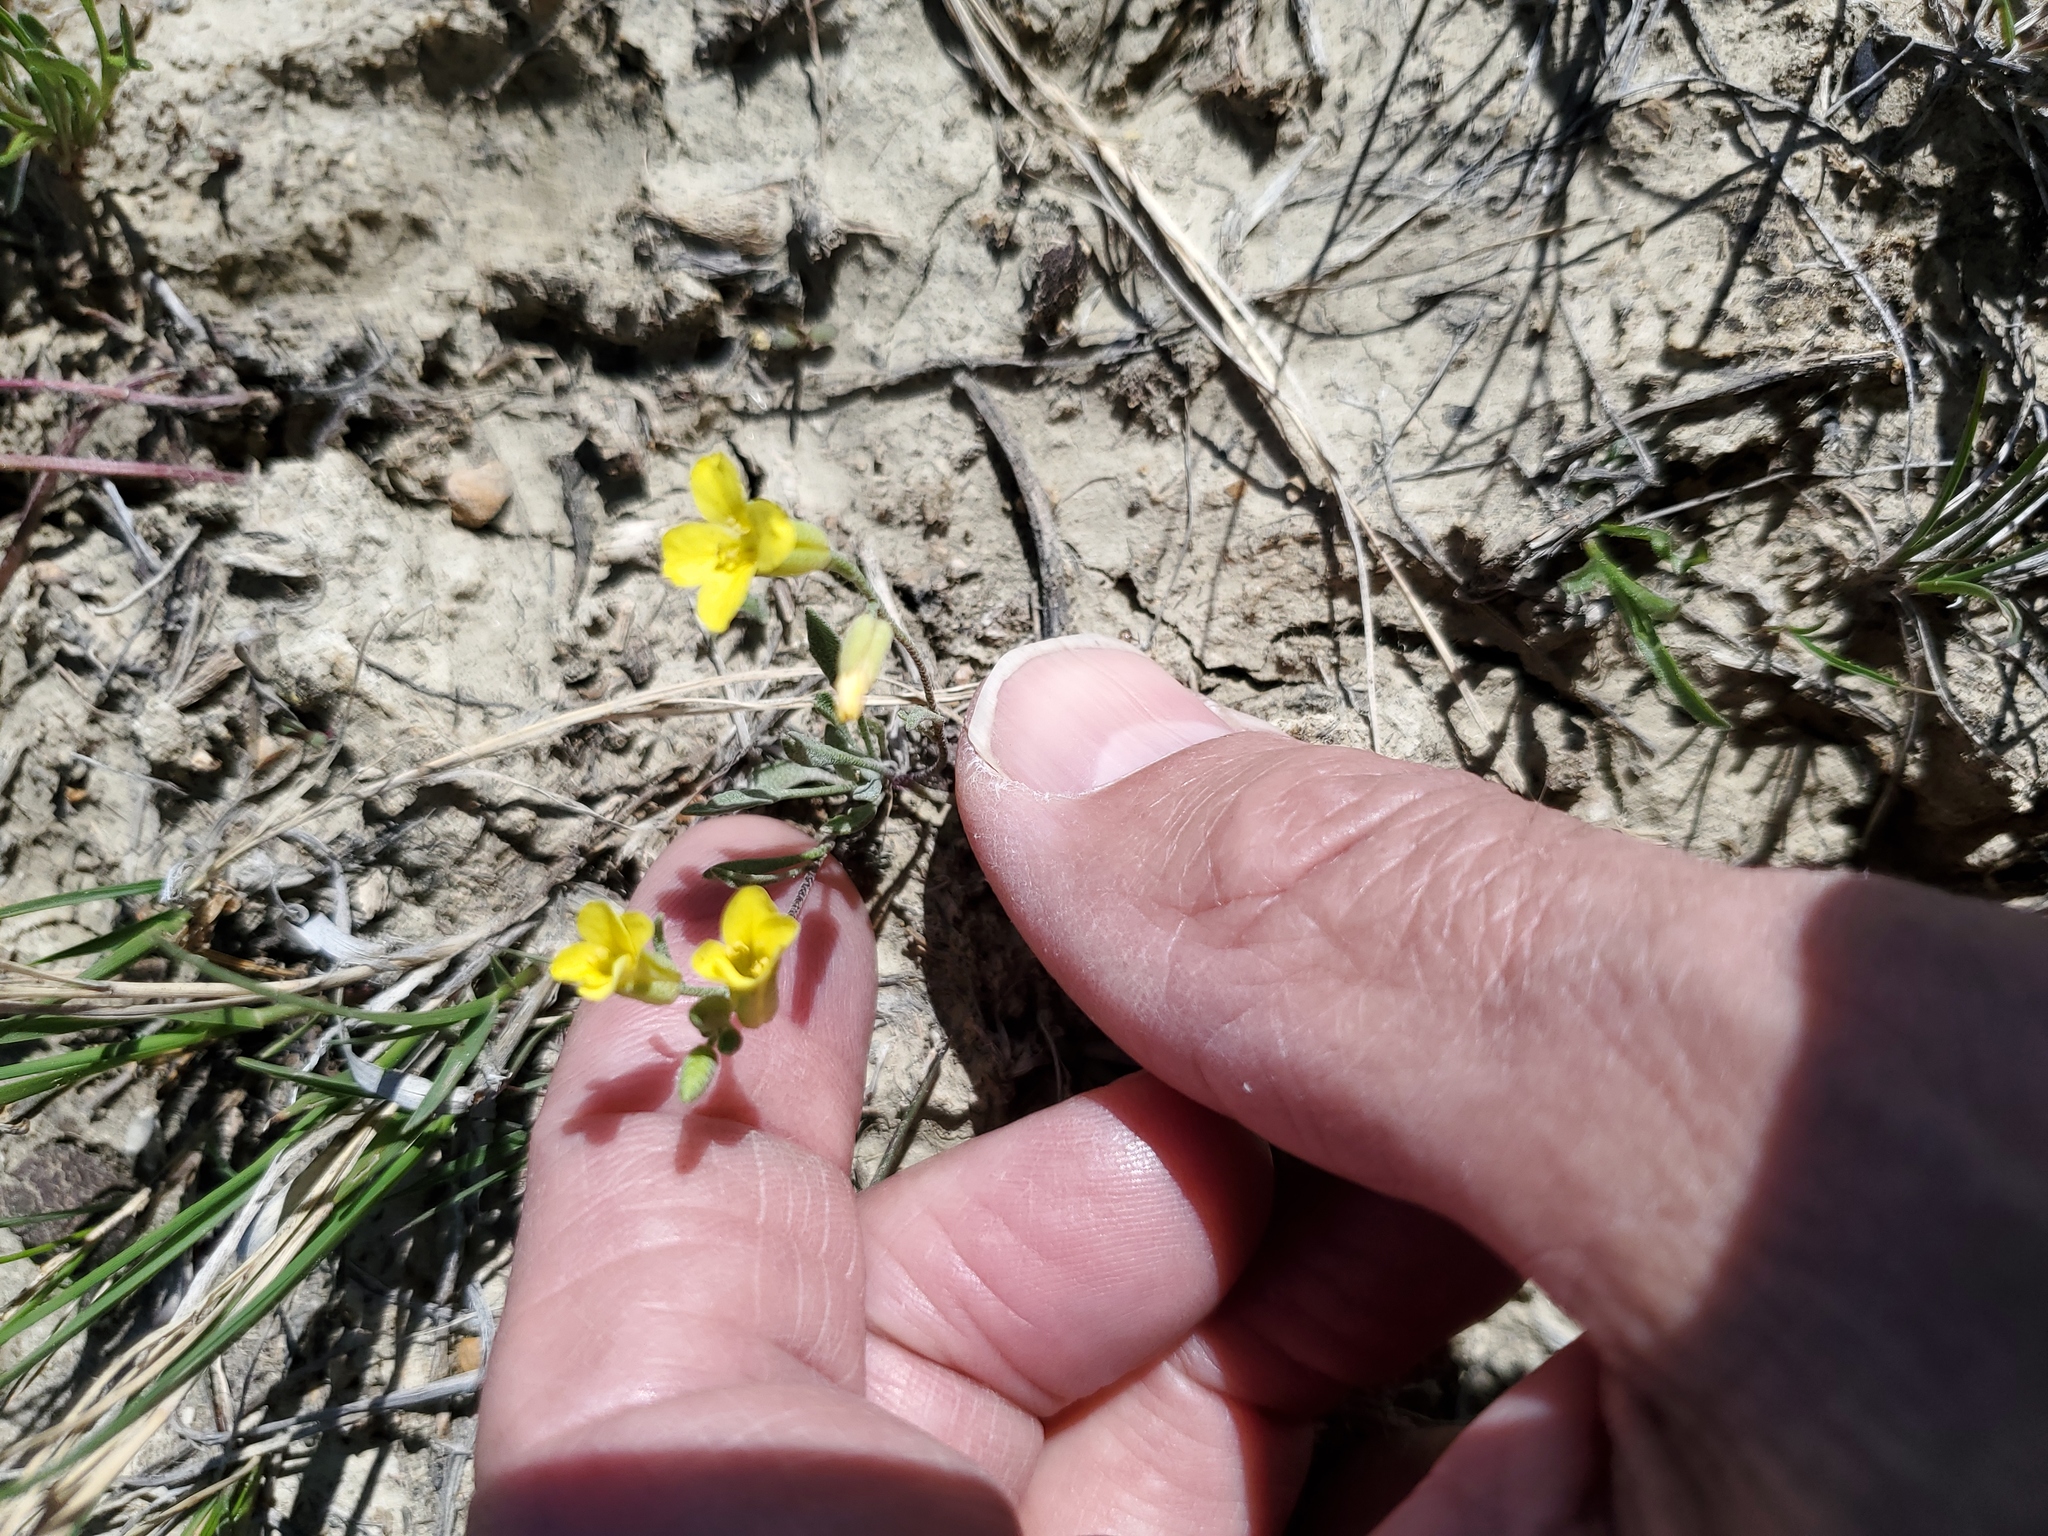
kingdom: Plantae
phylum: Tracheophyta
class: Magnoliopsida
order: Brassicales
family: Brassicaceae
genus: Physaria
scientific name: Physaria arenosa
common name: Great plains bladderpod
